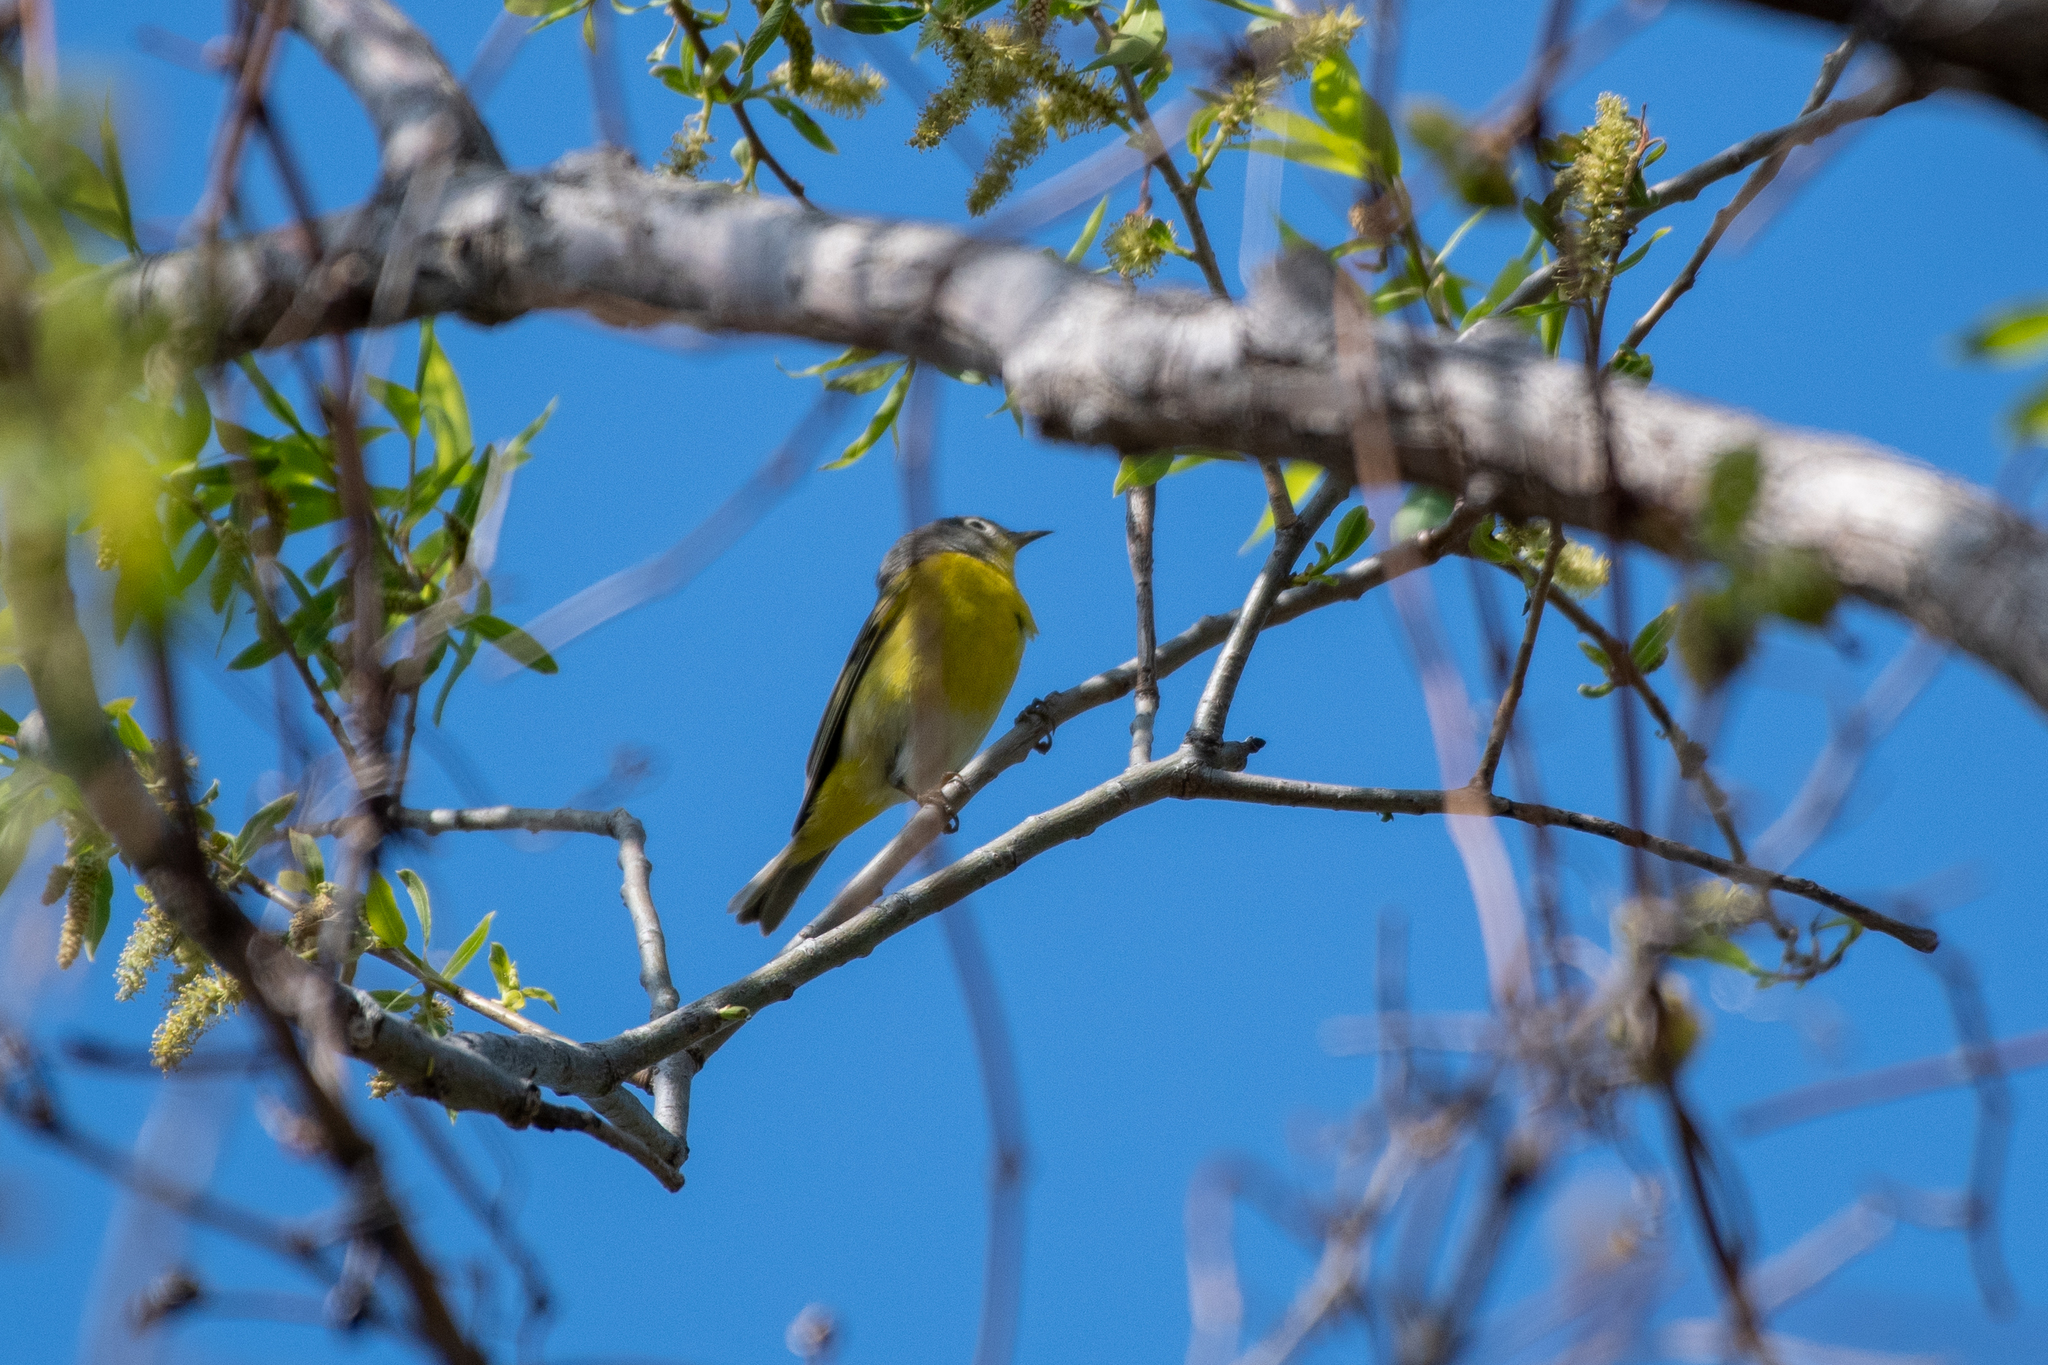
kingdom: Animalia
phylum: Chordata
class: Aves
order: Passeriformes
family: Parulidae
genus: Leiothlypis
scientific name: Leiothlypis ruficapilla
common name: Nashville warbler
